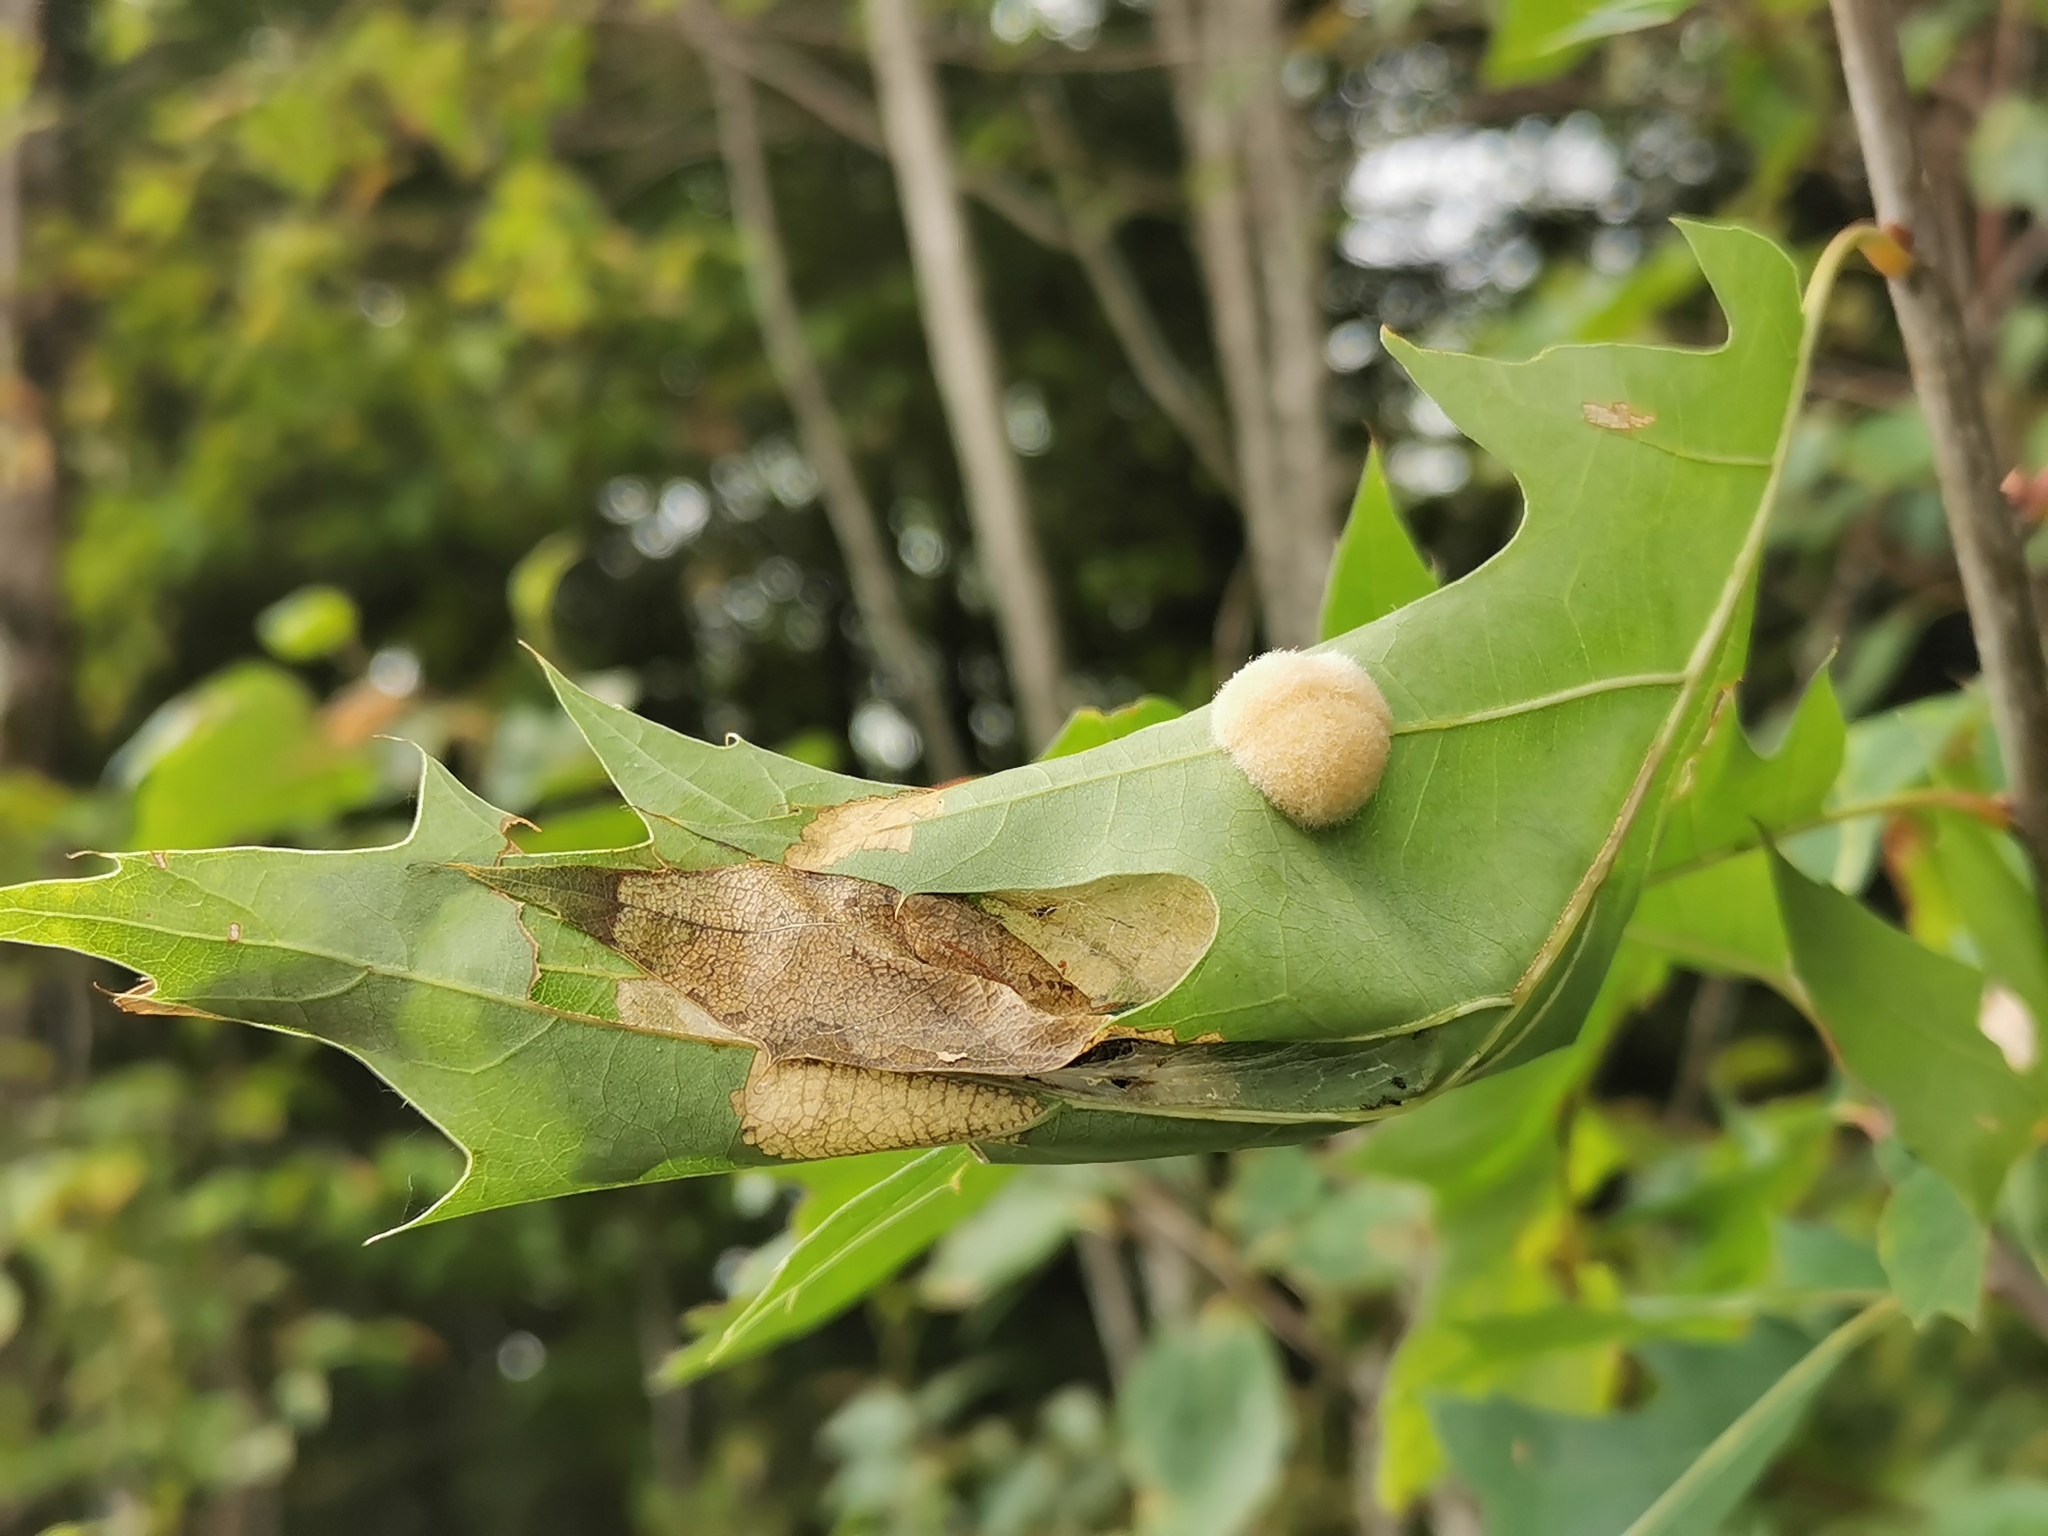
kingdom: Animalia
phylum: Arthropoda
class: Insecta
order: Hymenoptera
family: Cynipidae
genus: Callirhytis
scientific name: Callirhytis
